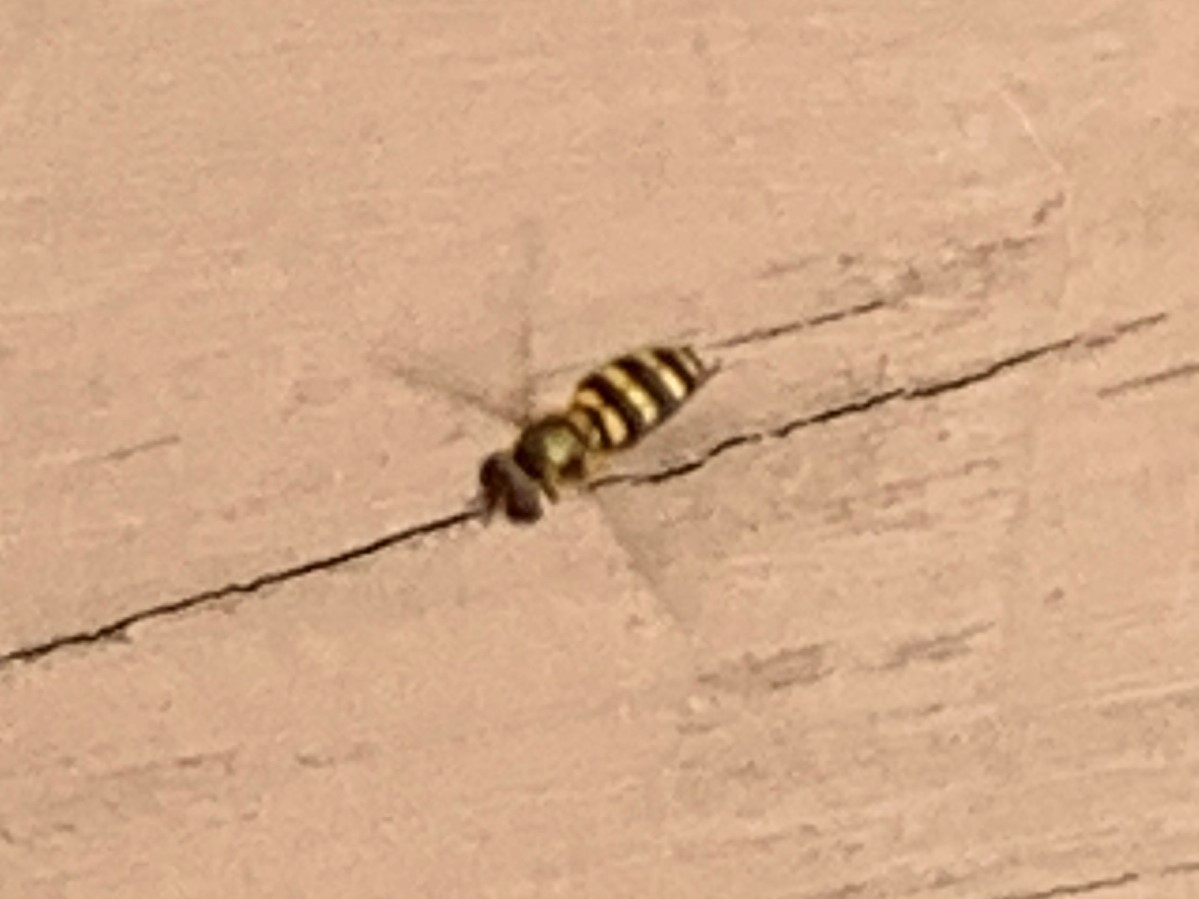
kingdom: Animalia
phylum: Arthropoda
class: Insecta
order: Diptera
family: Syrphidae
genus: Eupeodes
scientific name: Eupeodes
